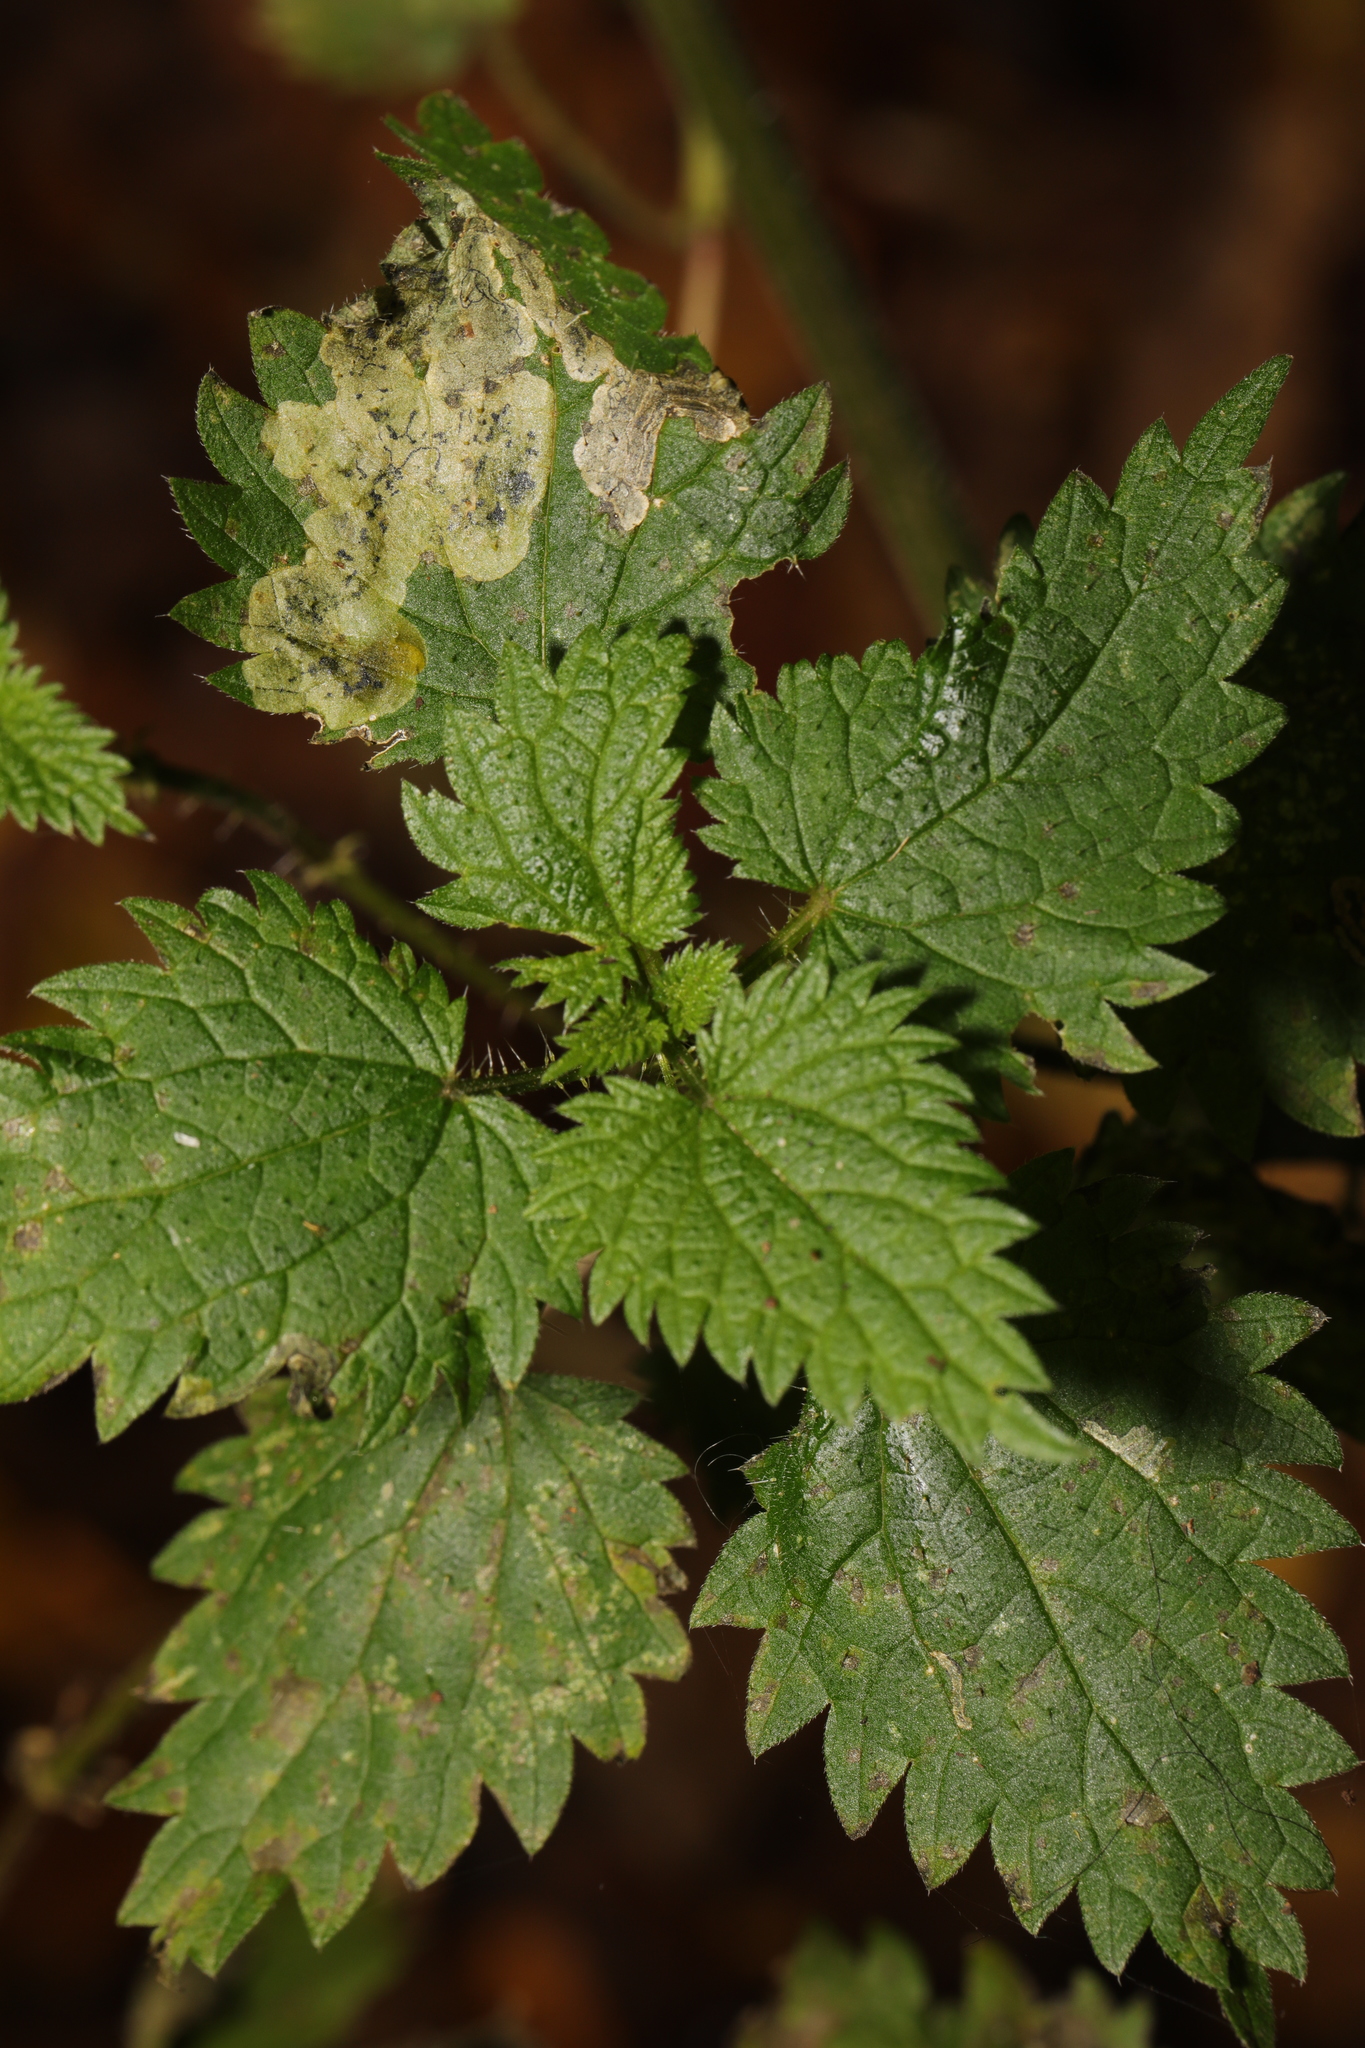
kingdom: Animalia
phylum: Arthropoda
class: Insecta
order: Diptera
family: Agromyzidae
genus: Agromyza
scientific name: Agromyza anthracina
